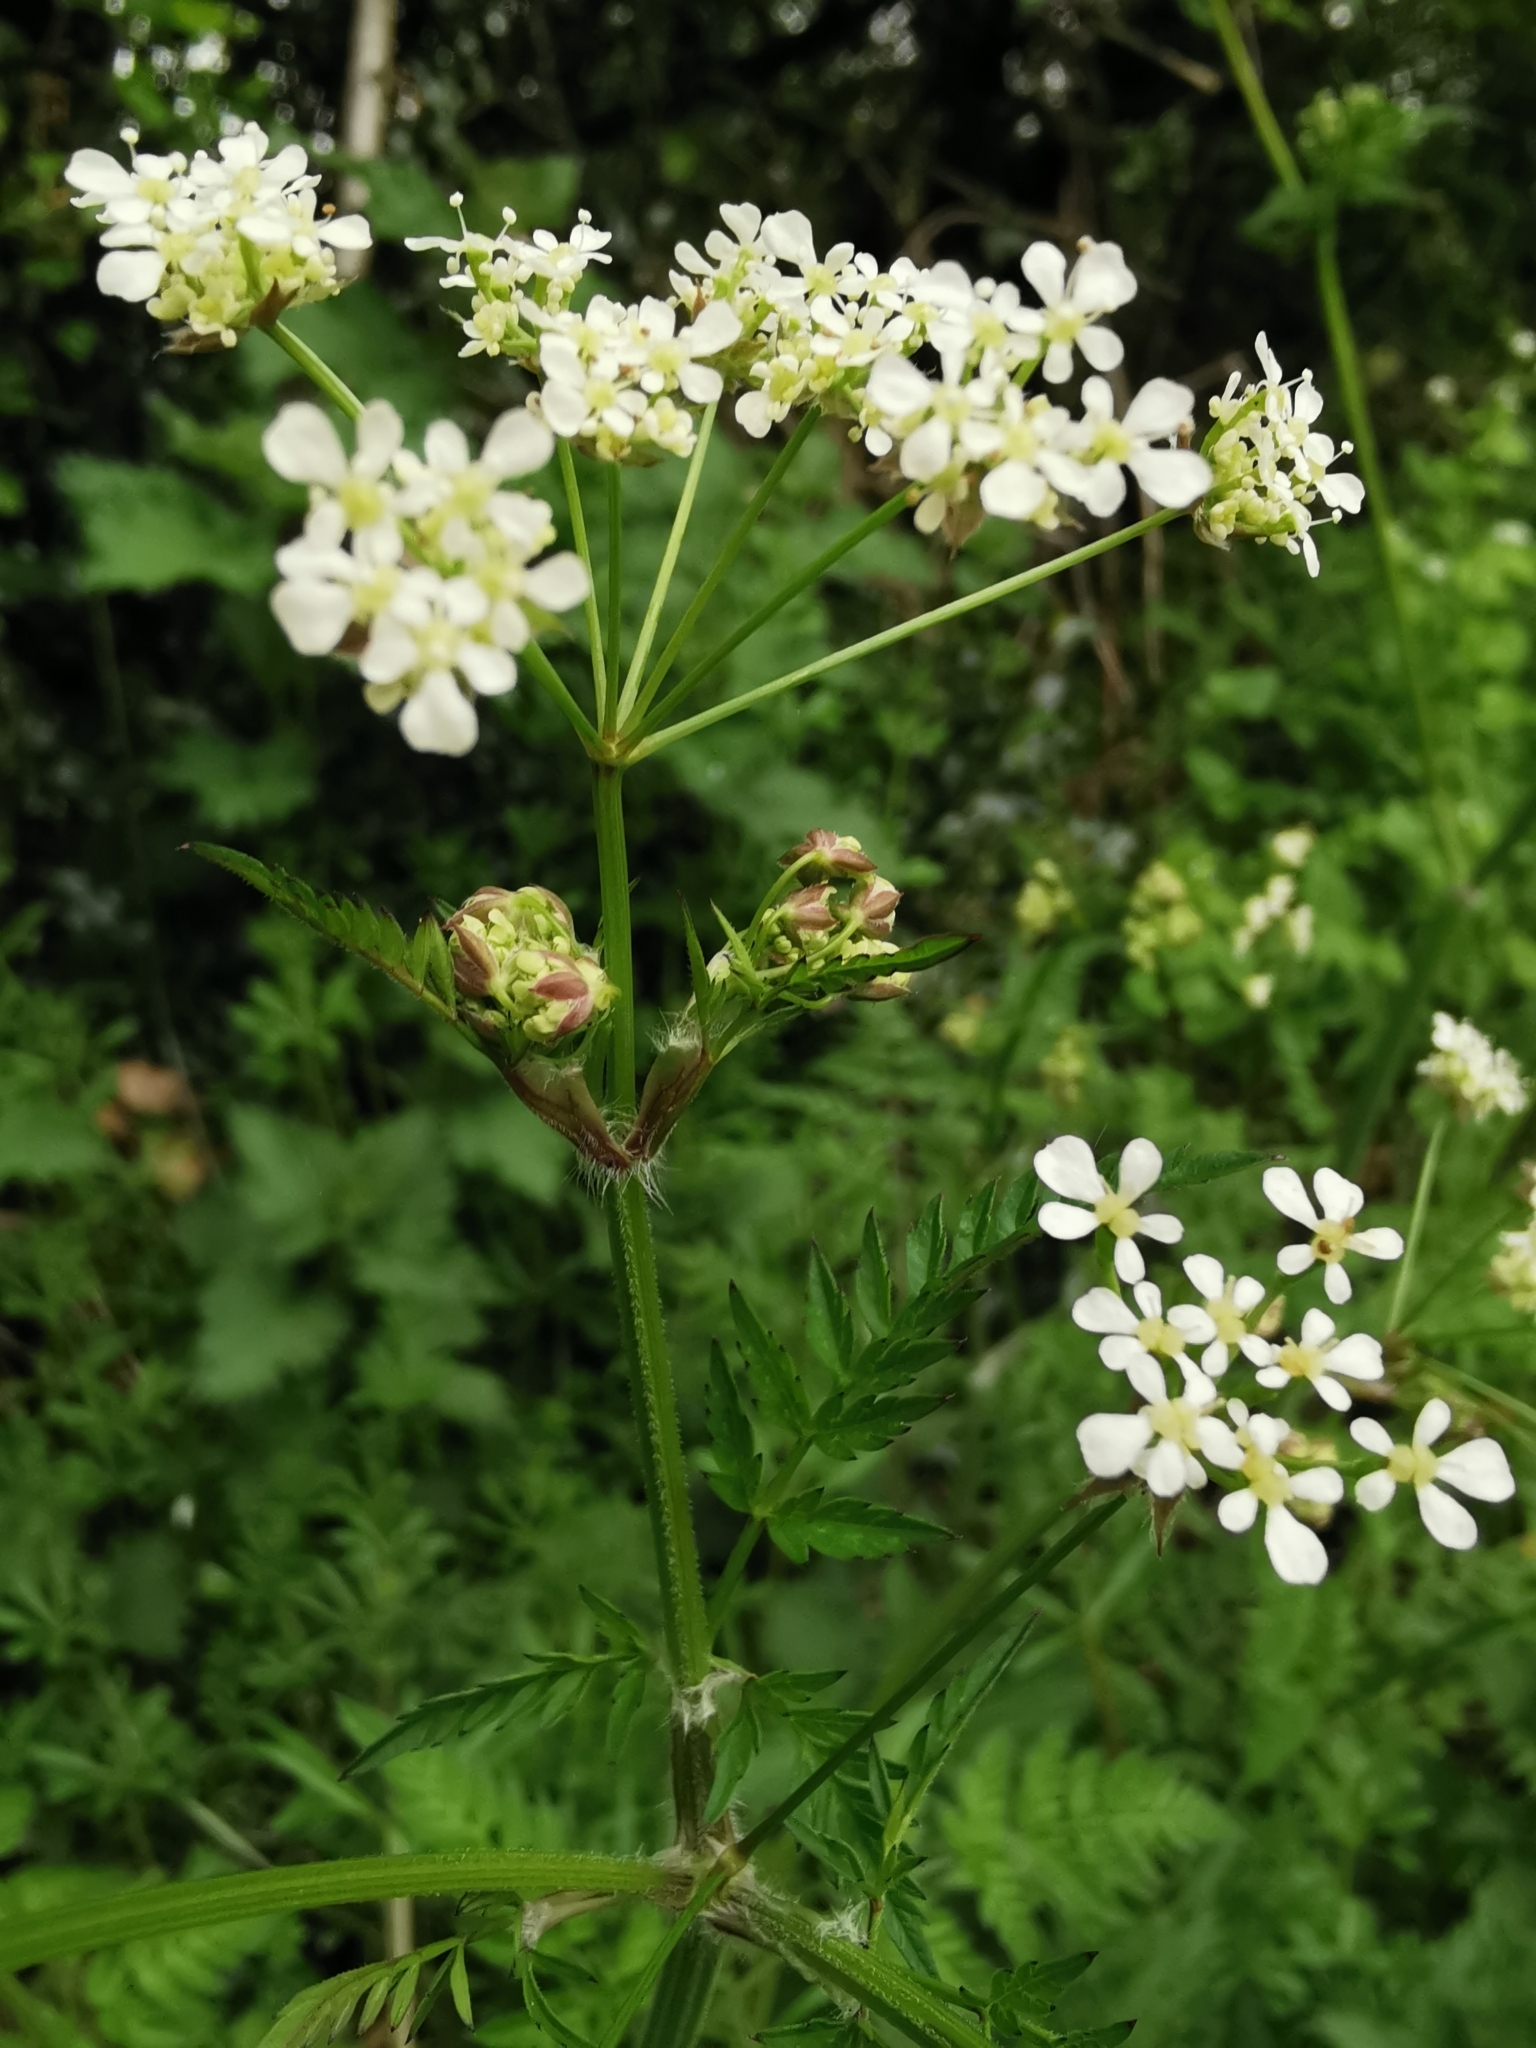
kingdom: Plantae
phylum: Tracheophyta
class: Magnoliopsida
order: Apiales
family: Apiaceae
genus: Anthriscus
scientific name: Anthriscus sylvestris
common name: Cow parsley
